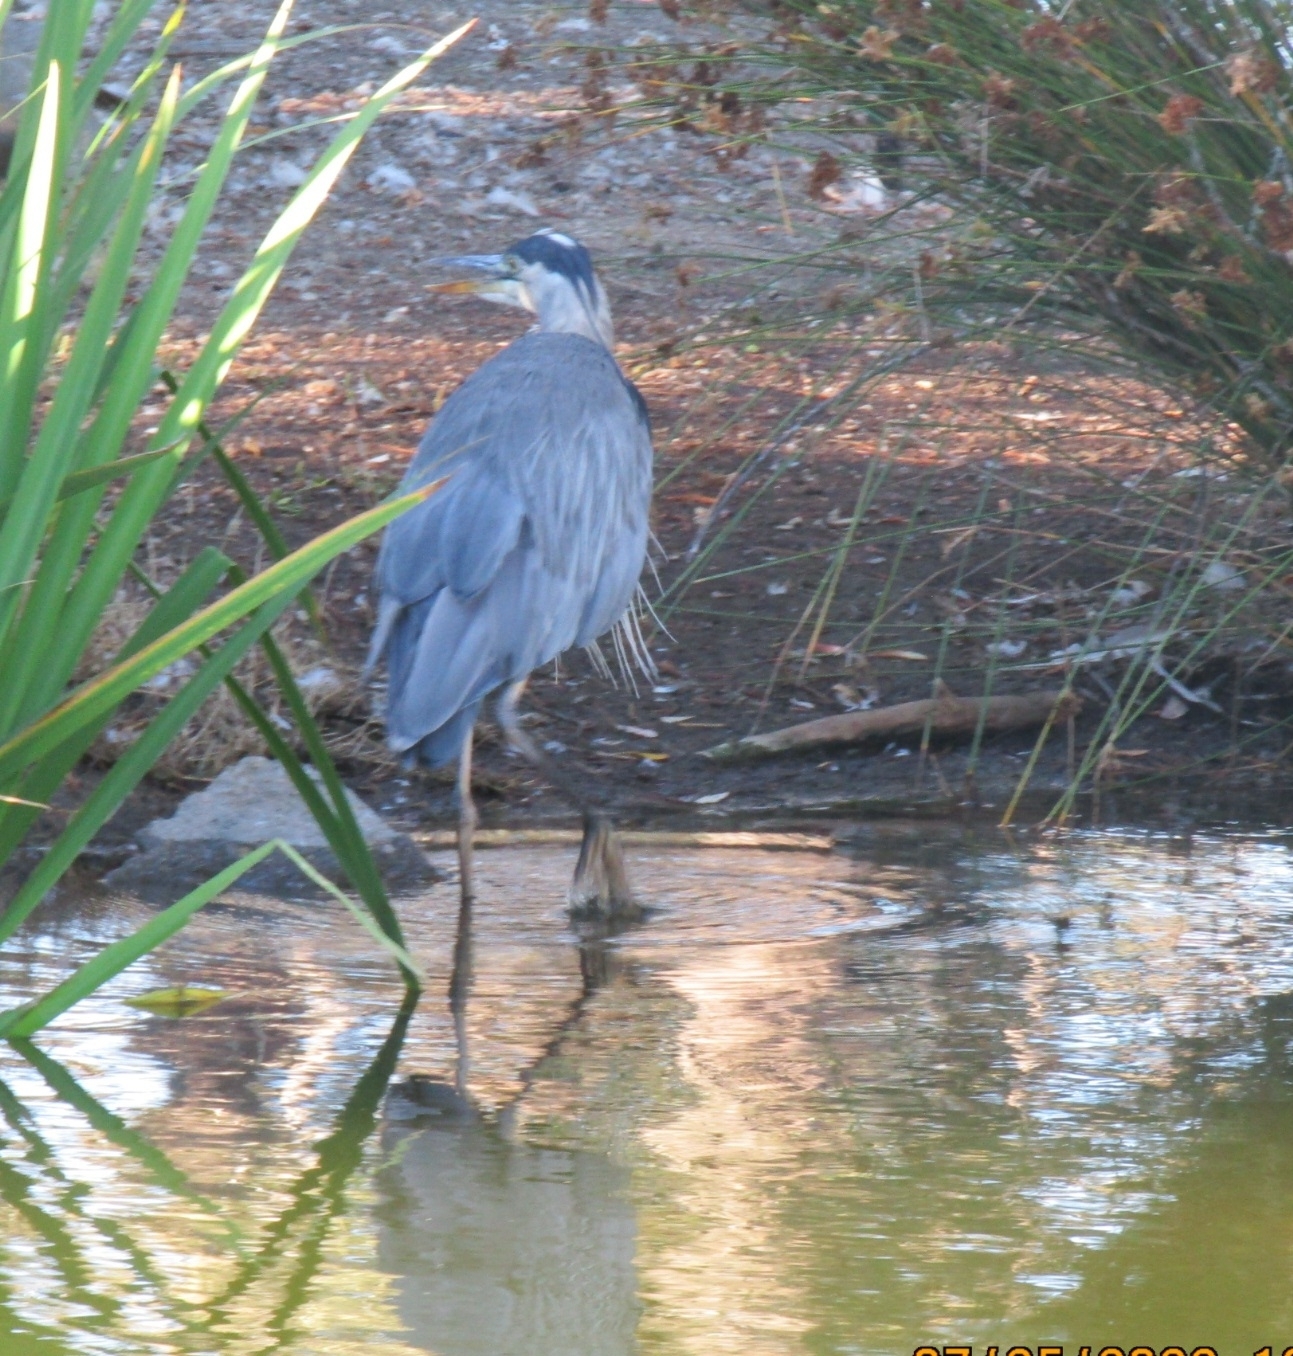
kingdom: Animalia
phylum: Chordata
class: Aves
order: Pelecaniformes
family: Ardeidae
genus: Ardea
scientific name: Ardea herodias
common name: Great blue heron
